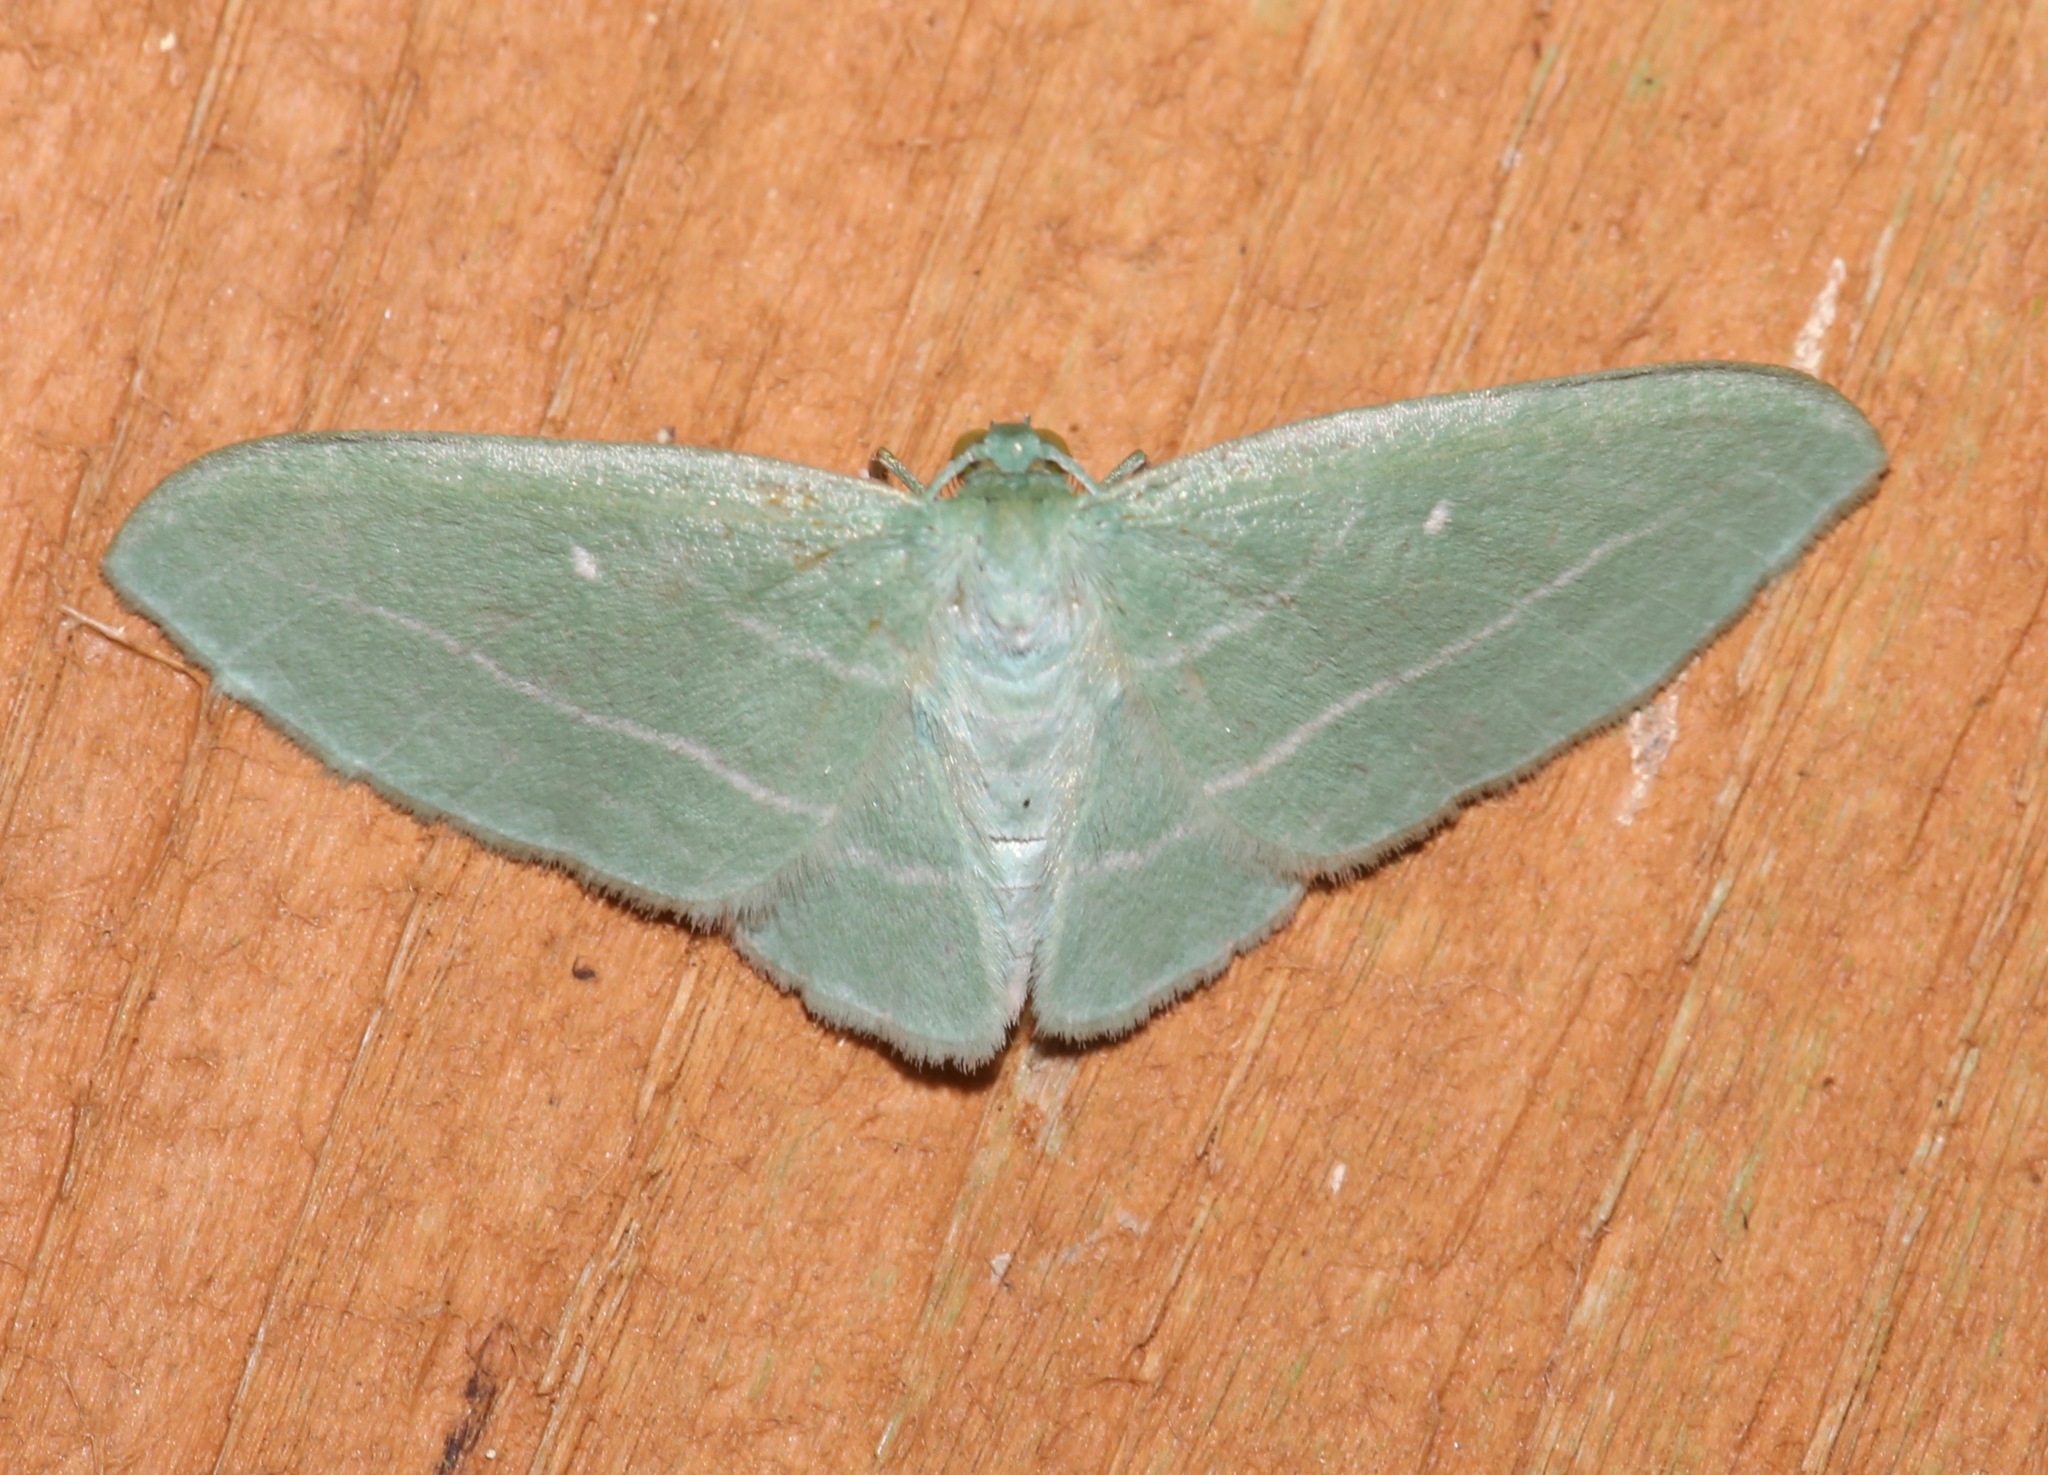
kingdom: Animalia
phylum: Arthropoda
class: Insecta
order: Lepidoptera
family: Geometridae
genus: Dyspteris
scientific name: Dyspteris abortivaria
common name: Bad-wing
